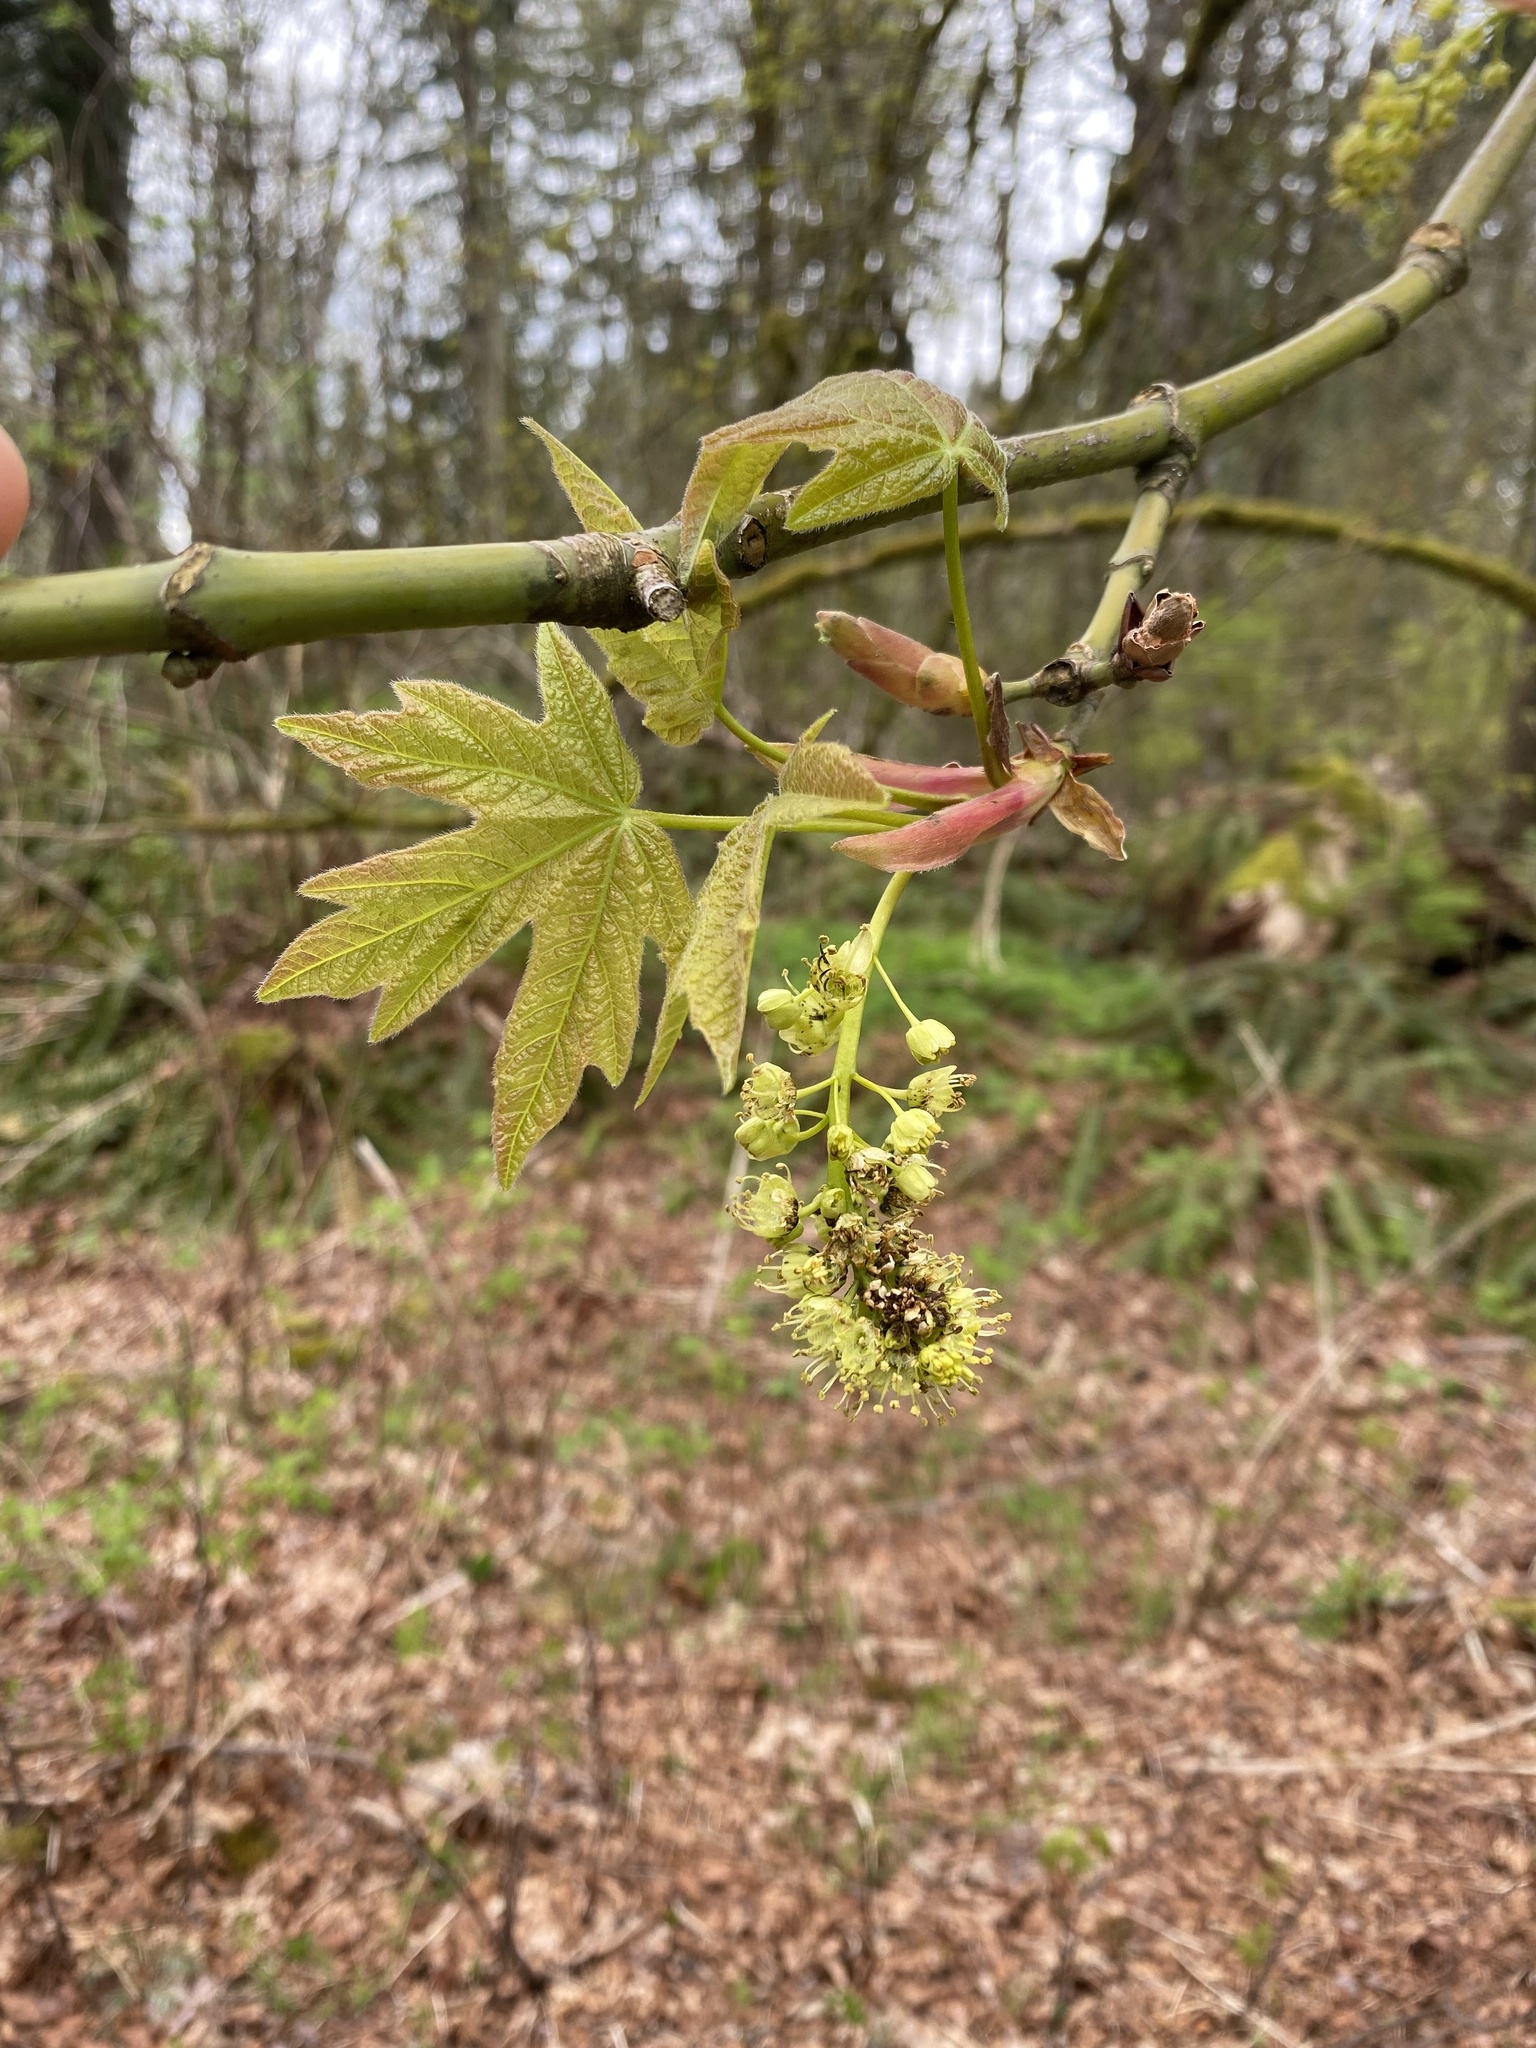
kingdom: Plantae
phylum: Tracheophyta
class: Magnoliopsida
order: Sapindales
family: Sapindaceae
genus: Acer
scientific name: Acer macrophyllum
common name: Oregon maple
